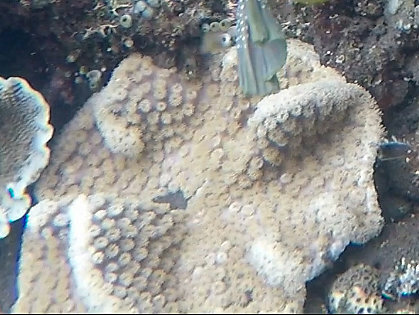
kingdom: Animalia
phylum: Cnidaria
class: Anthozoa
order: Scleractinia
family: Dendrophylliidae
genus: Duncanopsammia
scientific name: Duncanopsammia peltata
